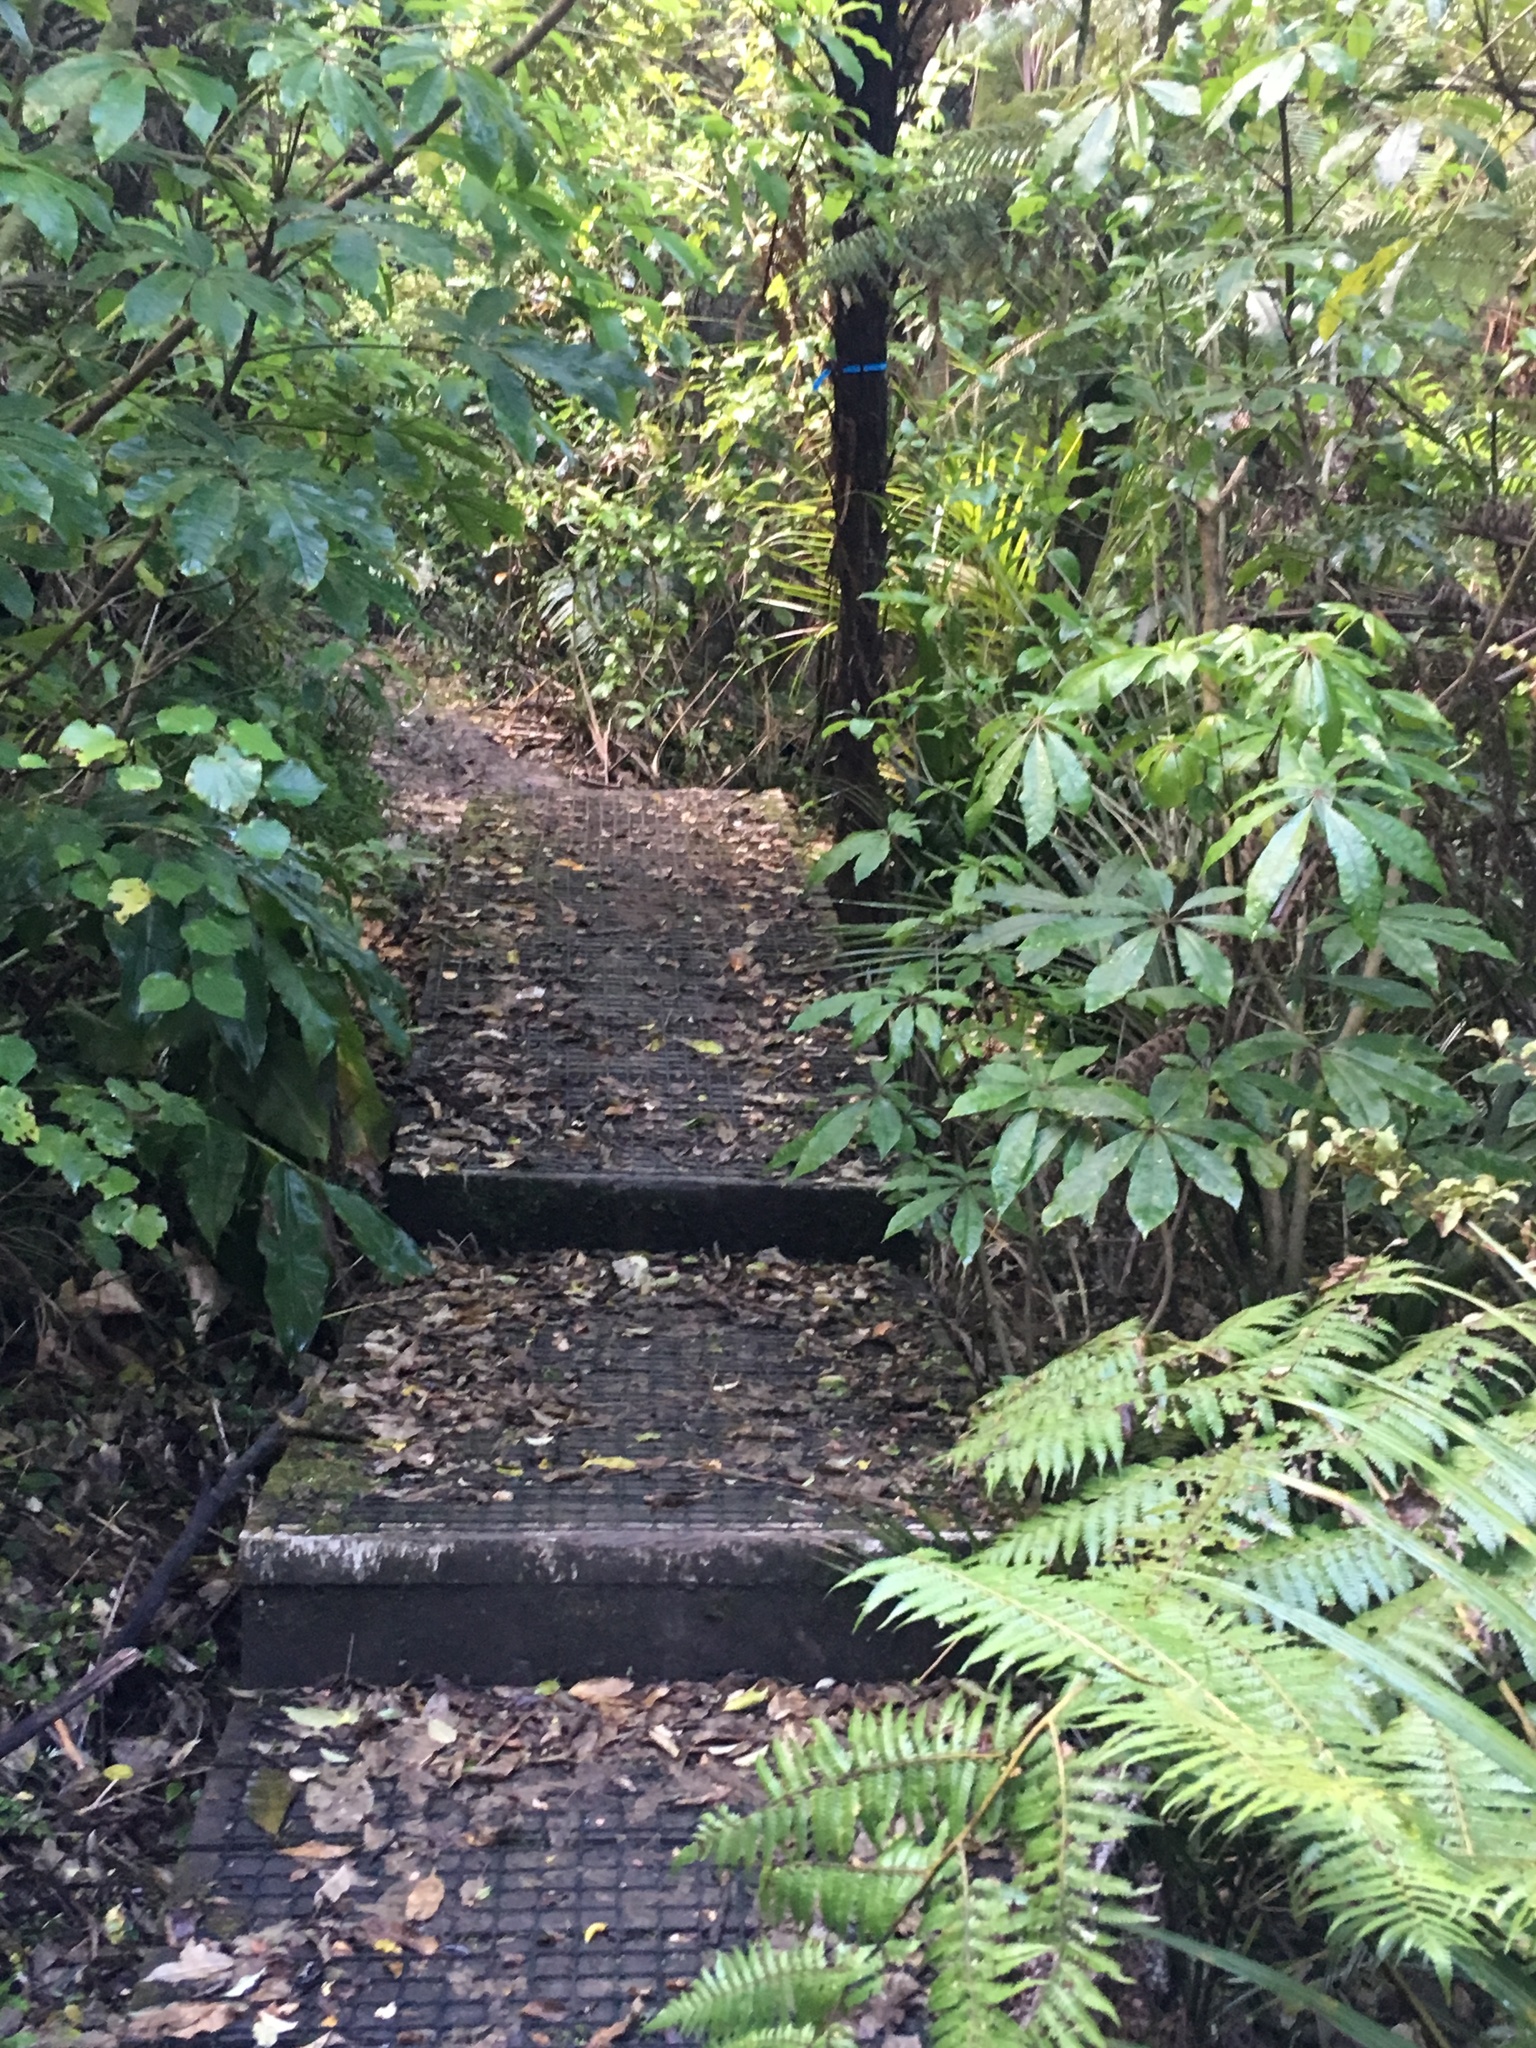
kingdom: Plantae
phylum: Tracheophyta
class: Magnoliopsida
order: Piperales
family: Piperaceae
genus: Macropiper
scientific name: Macropiper excelsum
